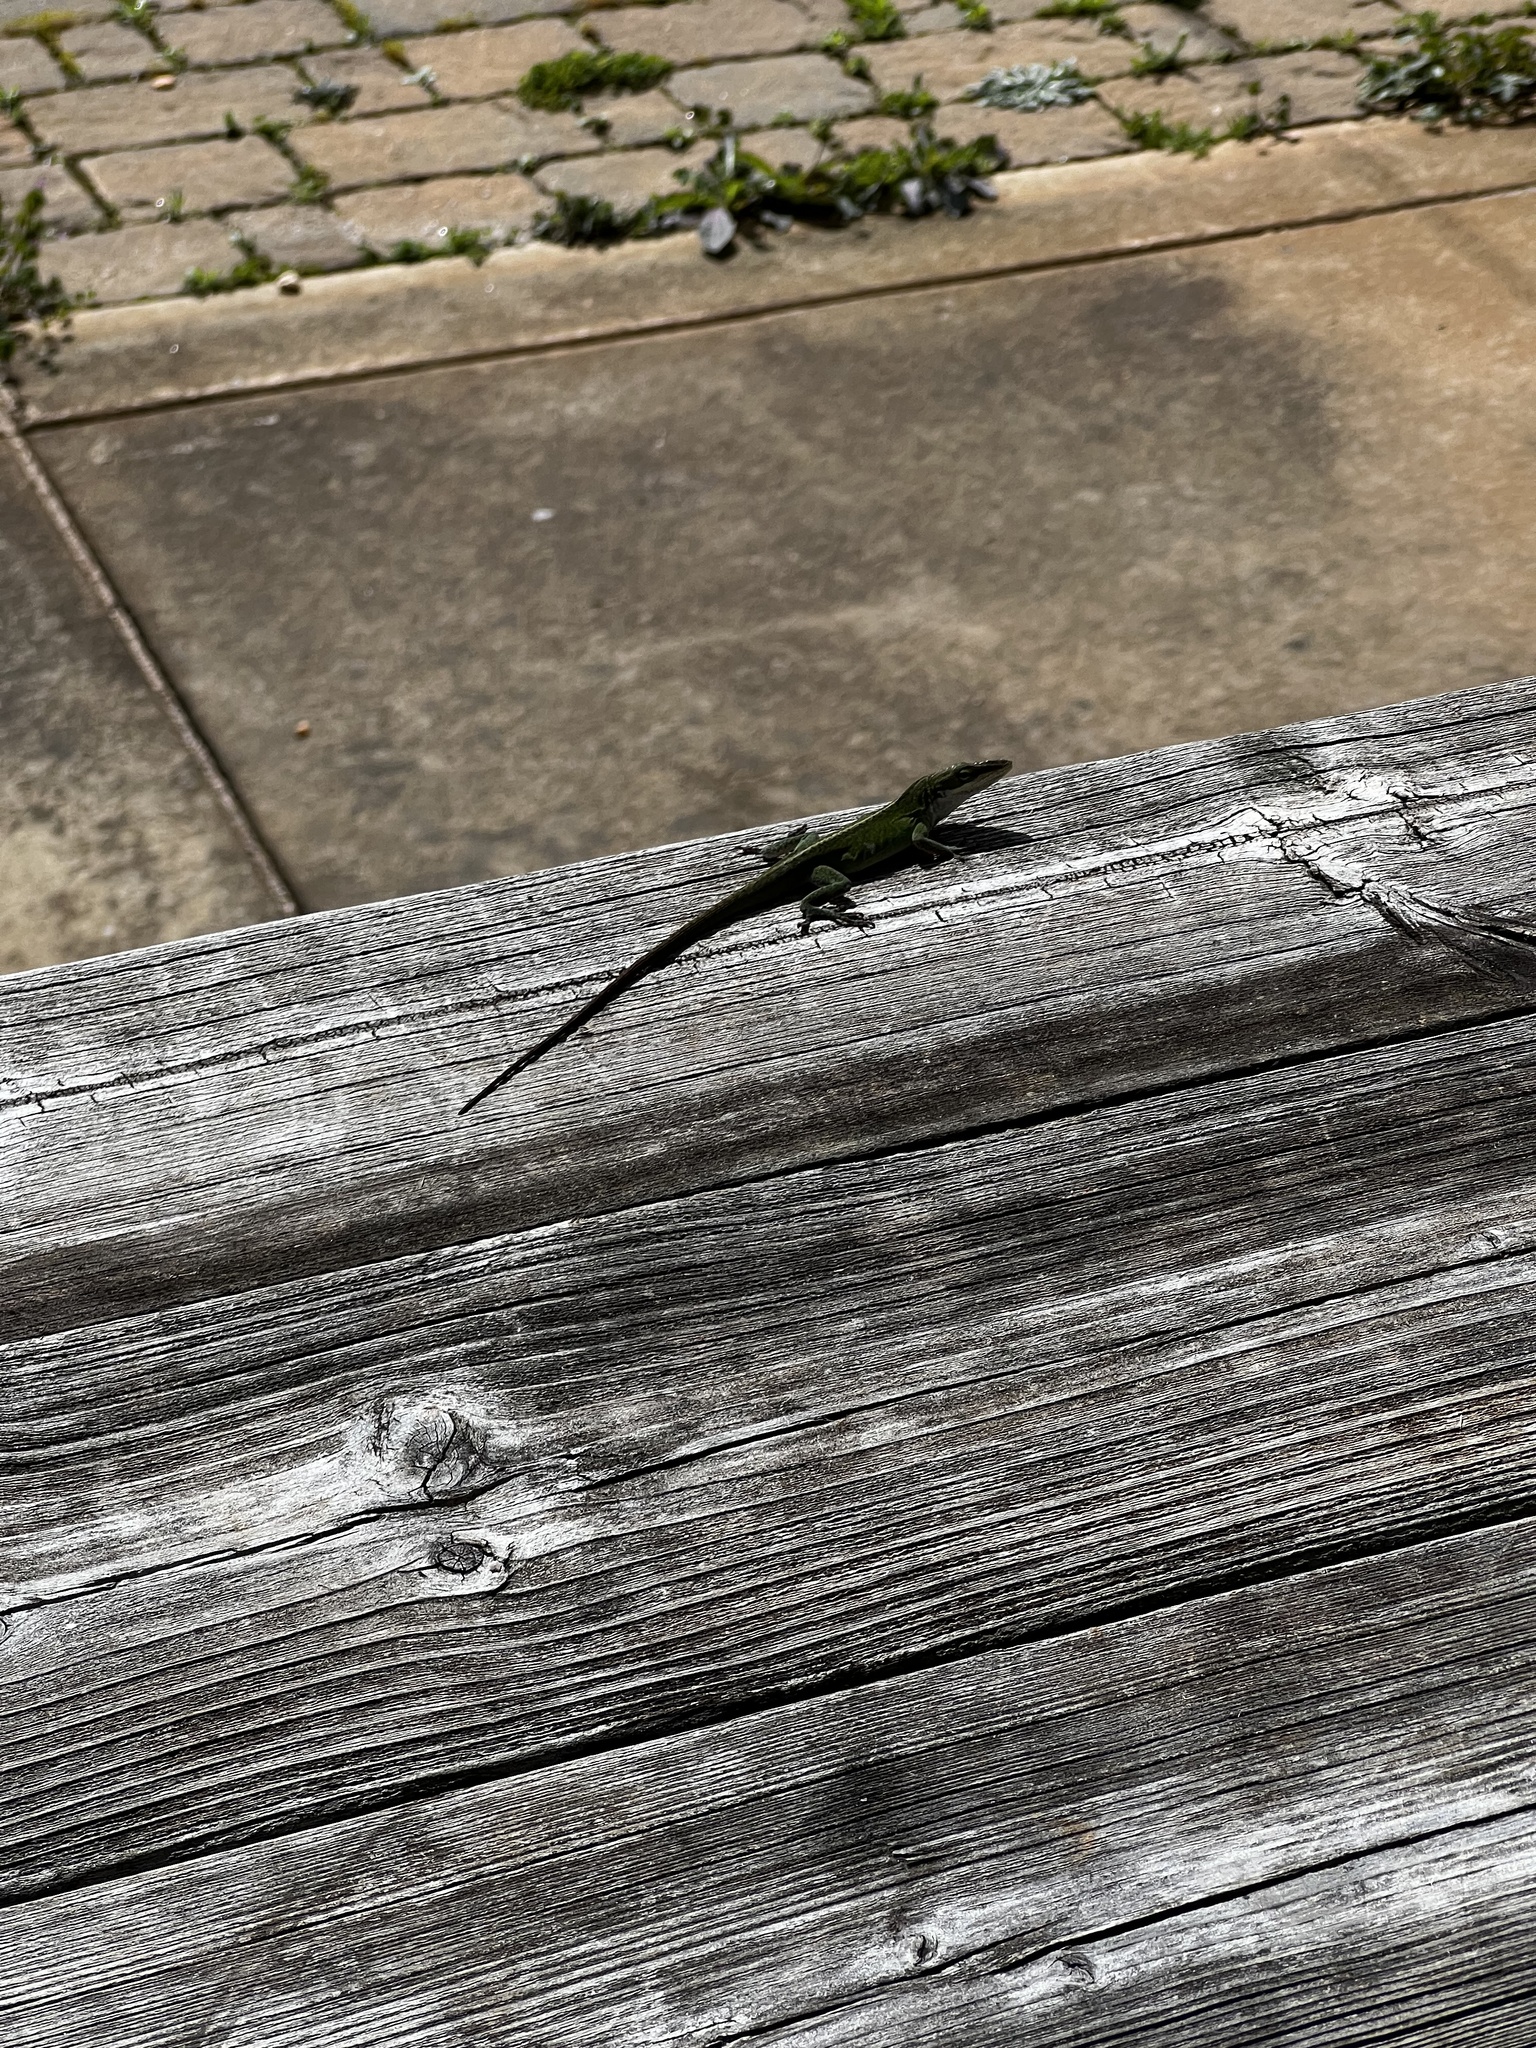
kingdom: Animalia
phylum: Chordata
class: Squamata
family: Dactyloidae
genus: Anolis
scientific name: Anolis carolinensis
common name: Green anole
